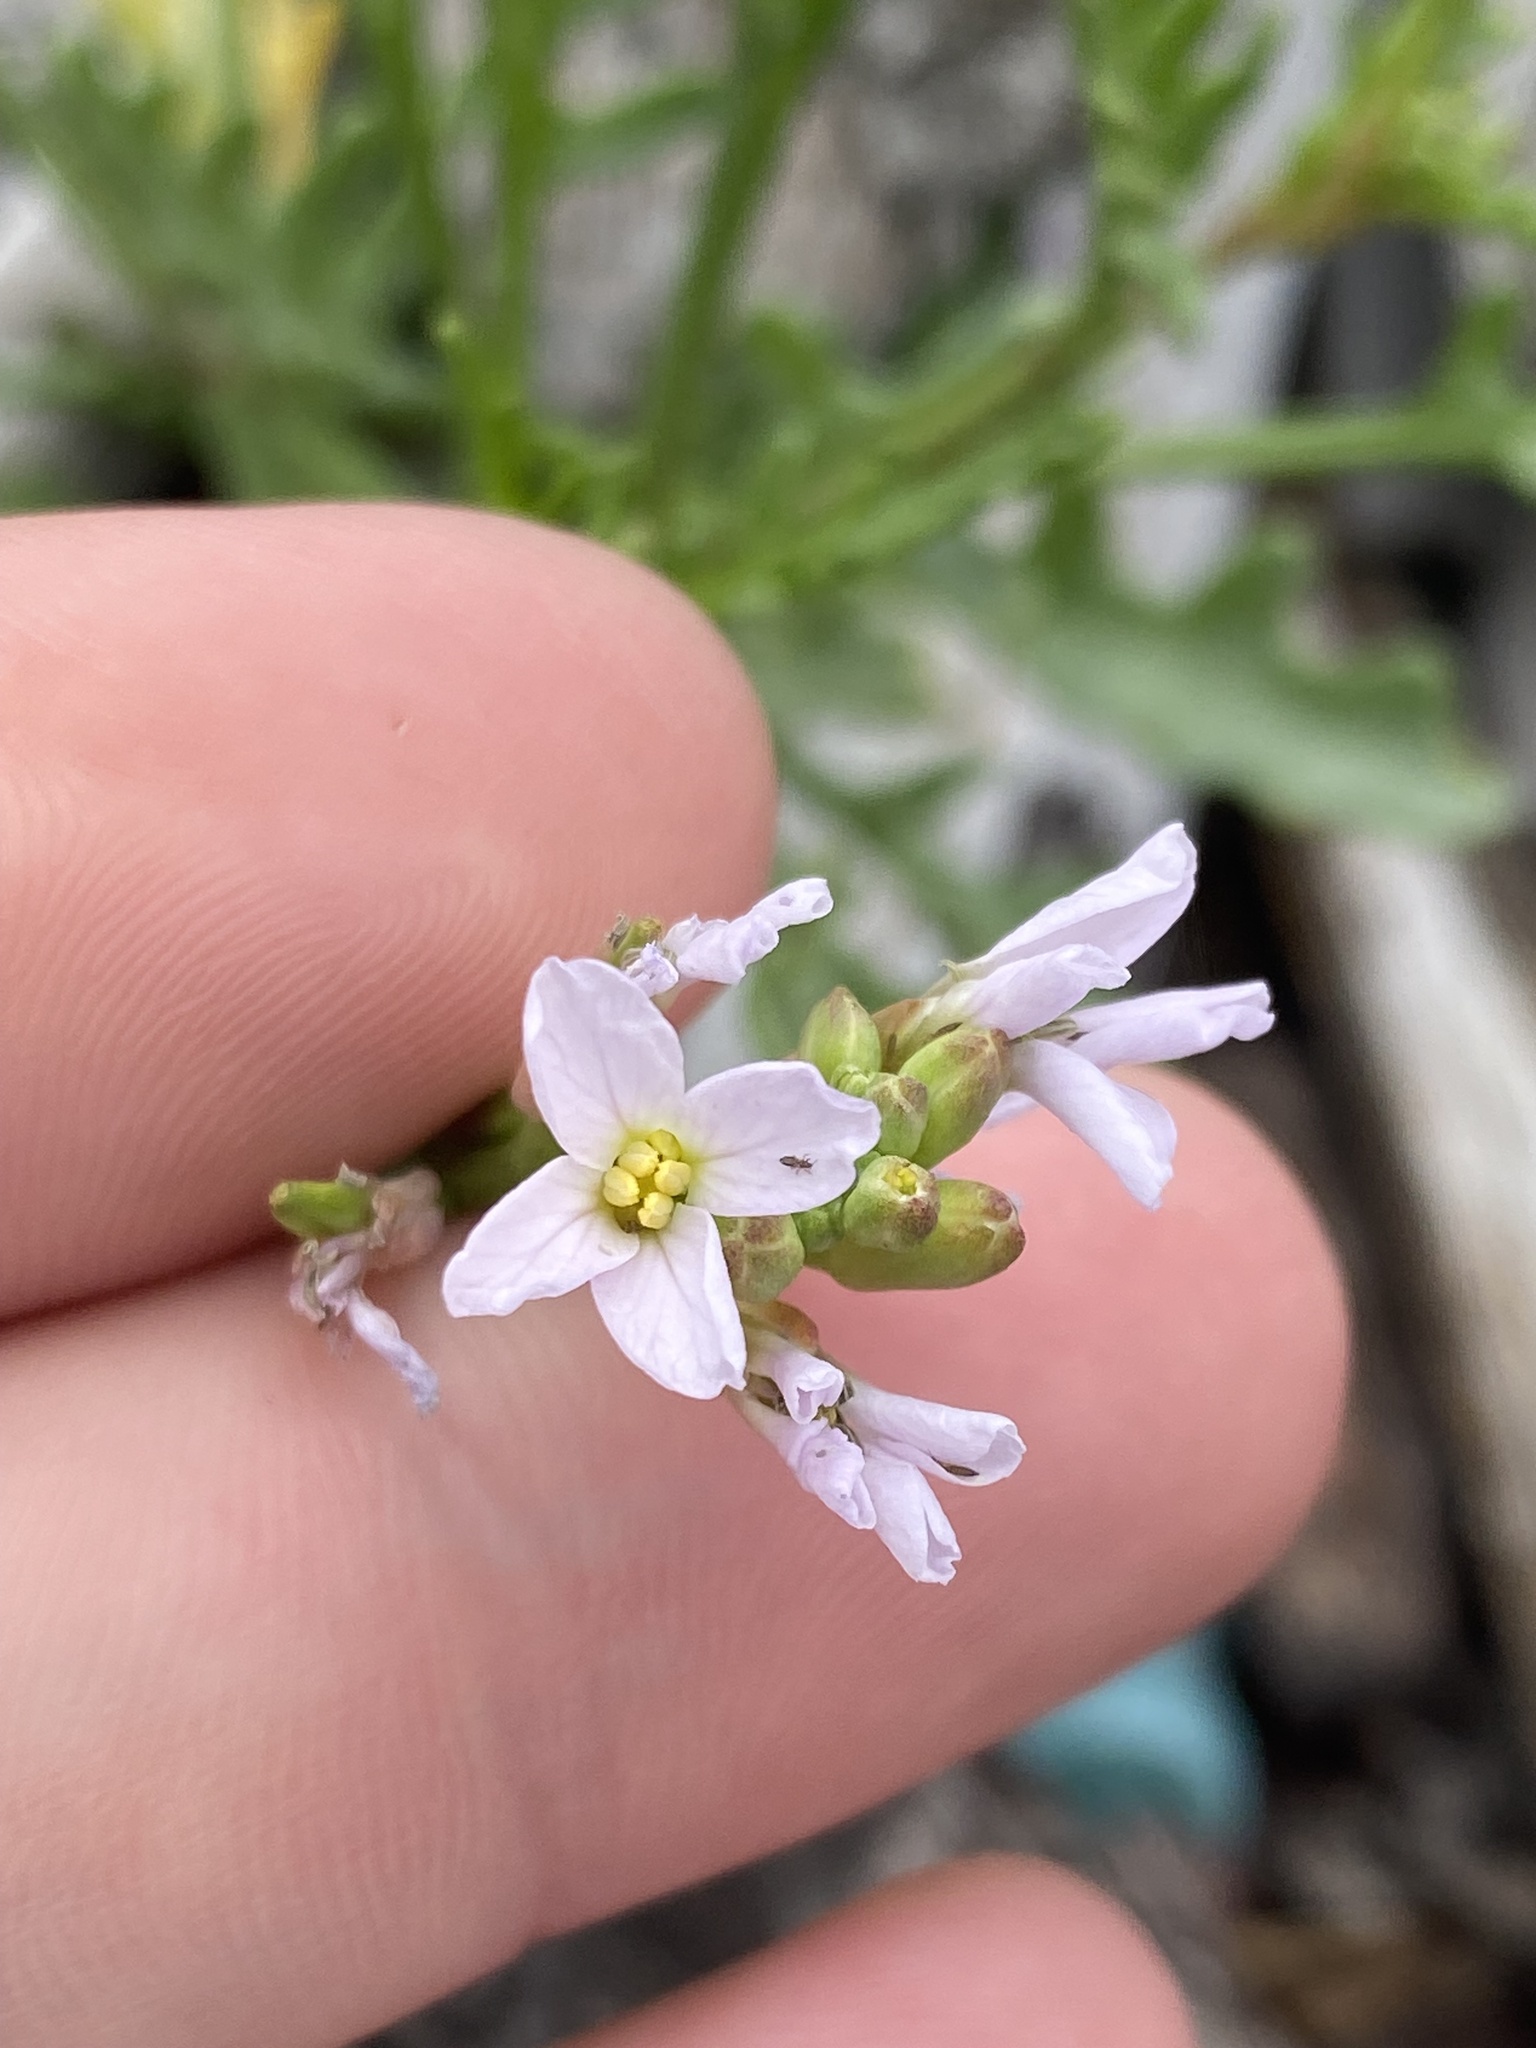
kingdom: Plantae
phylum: Tracheophyta
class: Magnoliopsida
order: Brassicales
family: Brassicaceae
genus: Cakile
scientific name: Cakile maritima
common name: Sea rocket
